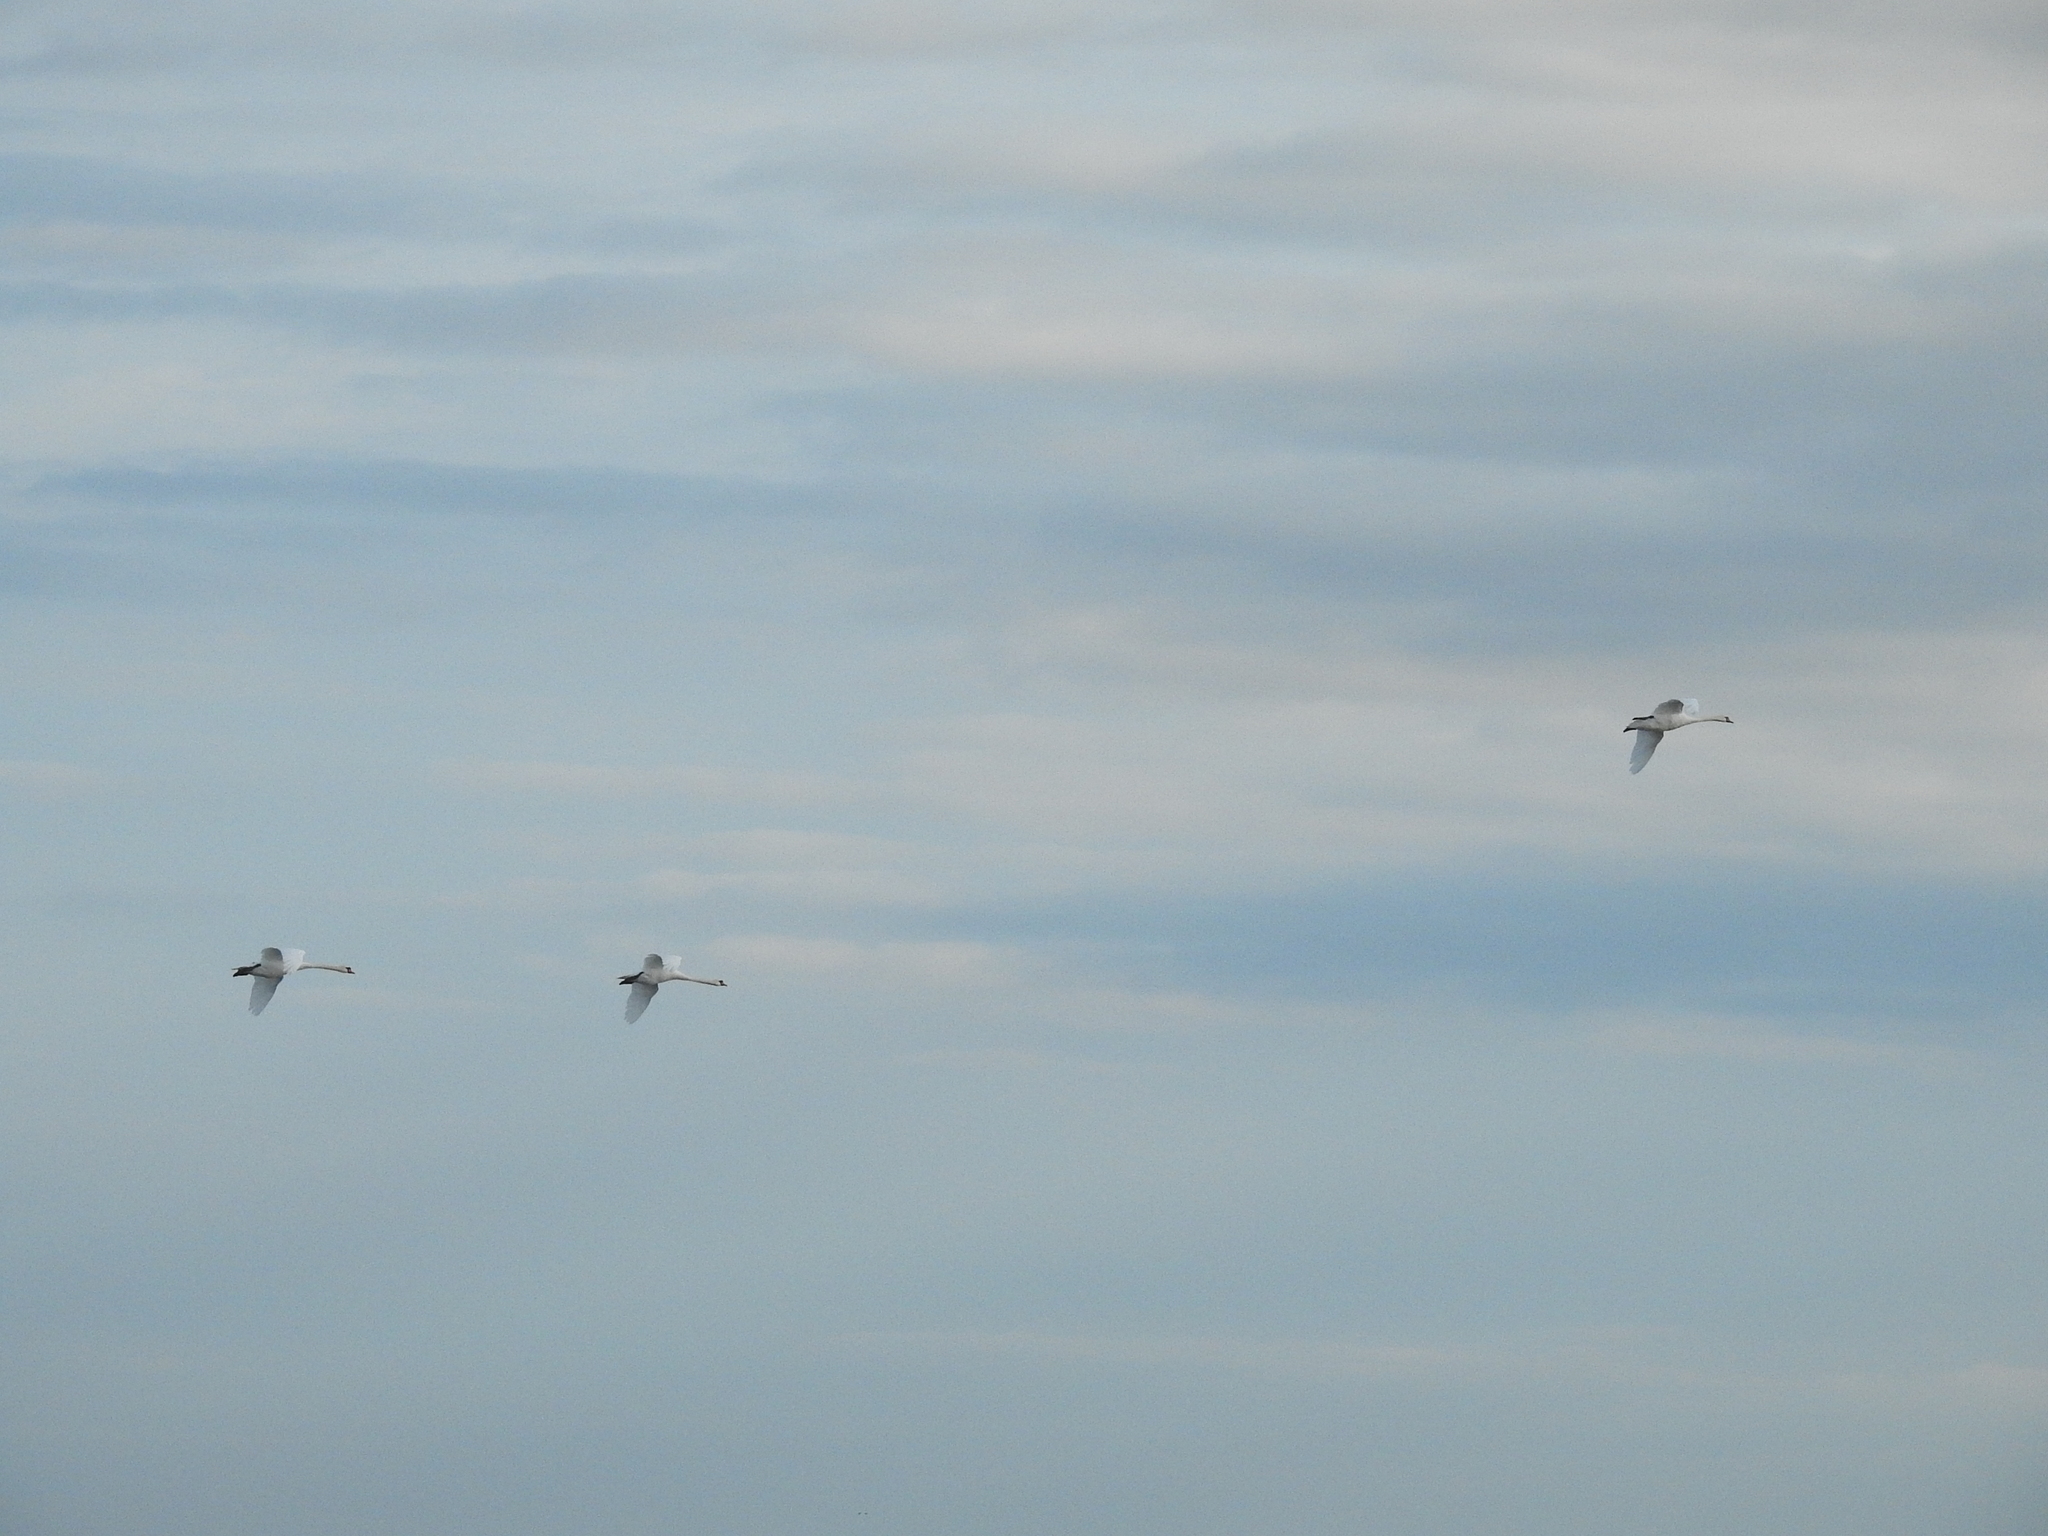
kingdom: Animalia
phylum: Chordata
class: Aves
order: Anseriformes
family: Anatidae
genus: Cygnus
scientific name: Cygnus olor
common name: Mute swan
